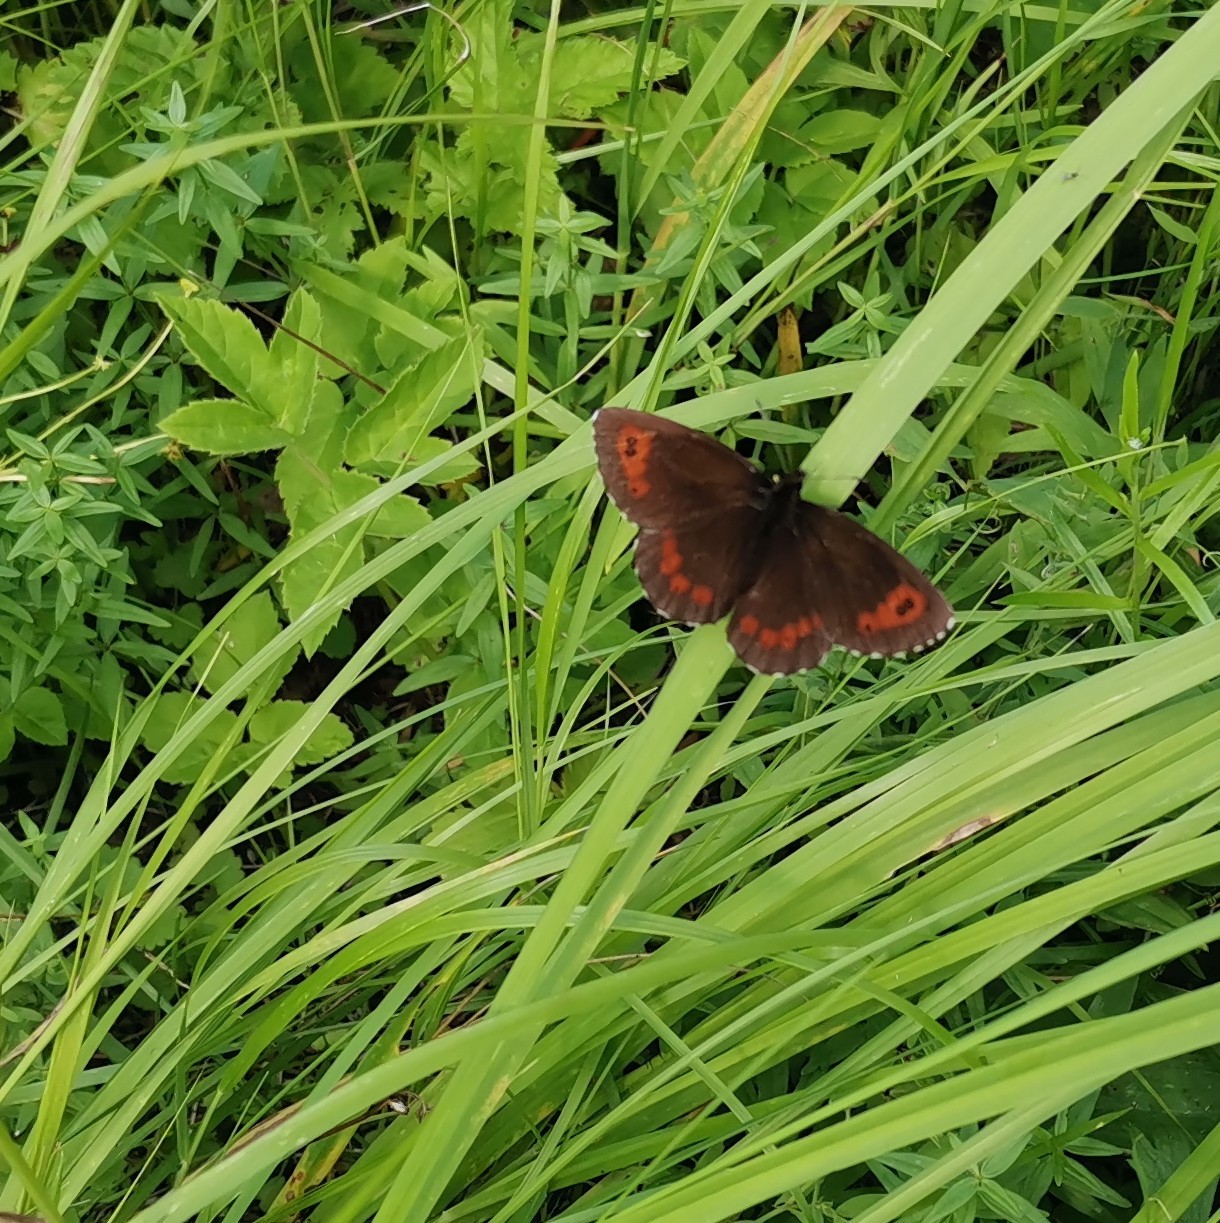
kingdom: Animalia
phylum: Arthropoda
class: Insecta
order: Lepidoptera
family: Nymphalidae
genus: Erebia
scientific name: Erebia ligea
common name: Arran brown
